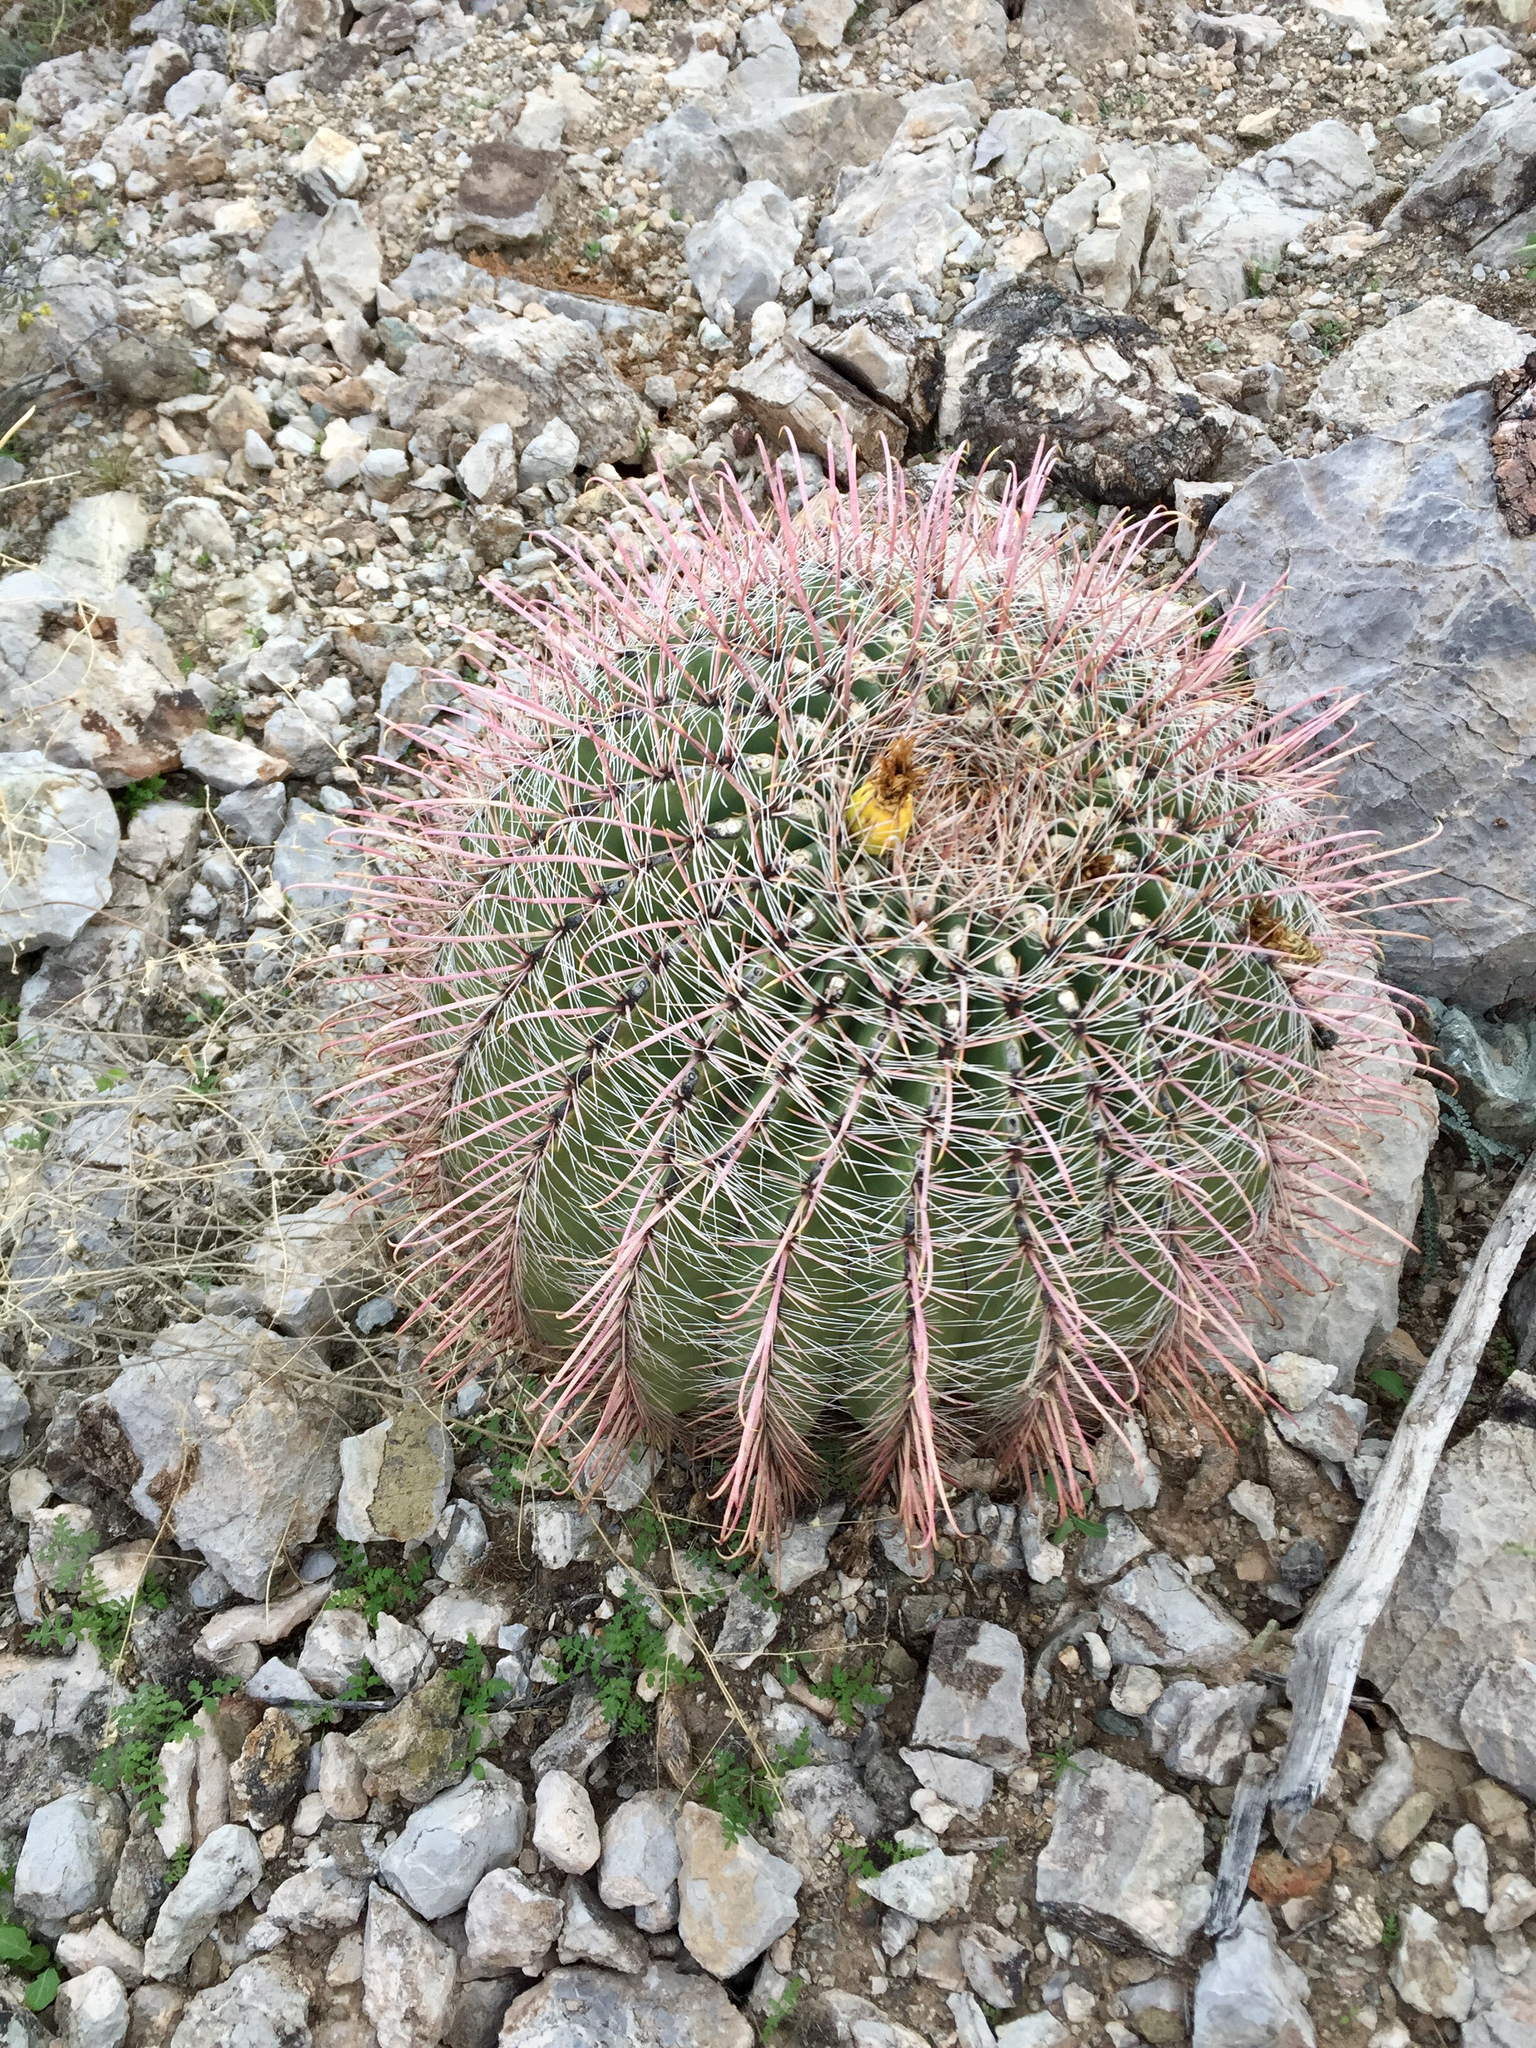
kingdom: Plantae
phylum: Tracheophyta
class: Magnoliopsida
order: Caryophyllales
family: Cactaceae
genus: Ferocactus
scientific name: Ferocactus wislizeni
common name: Candy barrel cactus
